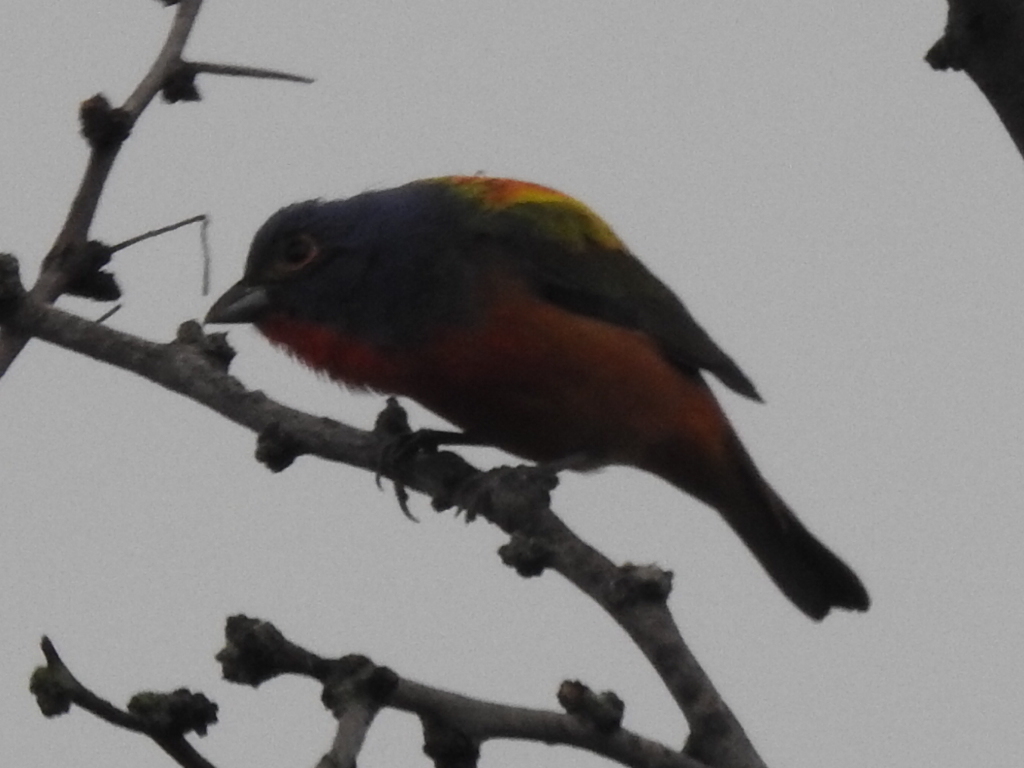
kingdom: Animalia
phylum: Chordata
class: Aves
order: Passeriformes
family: Cardinalidae
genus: Passerina
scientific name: Passerina ciris
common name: Painted bunting
